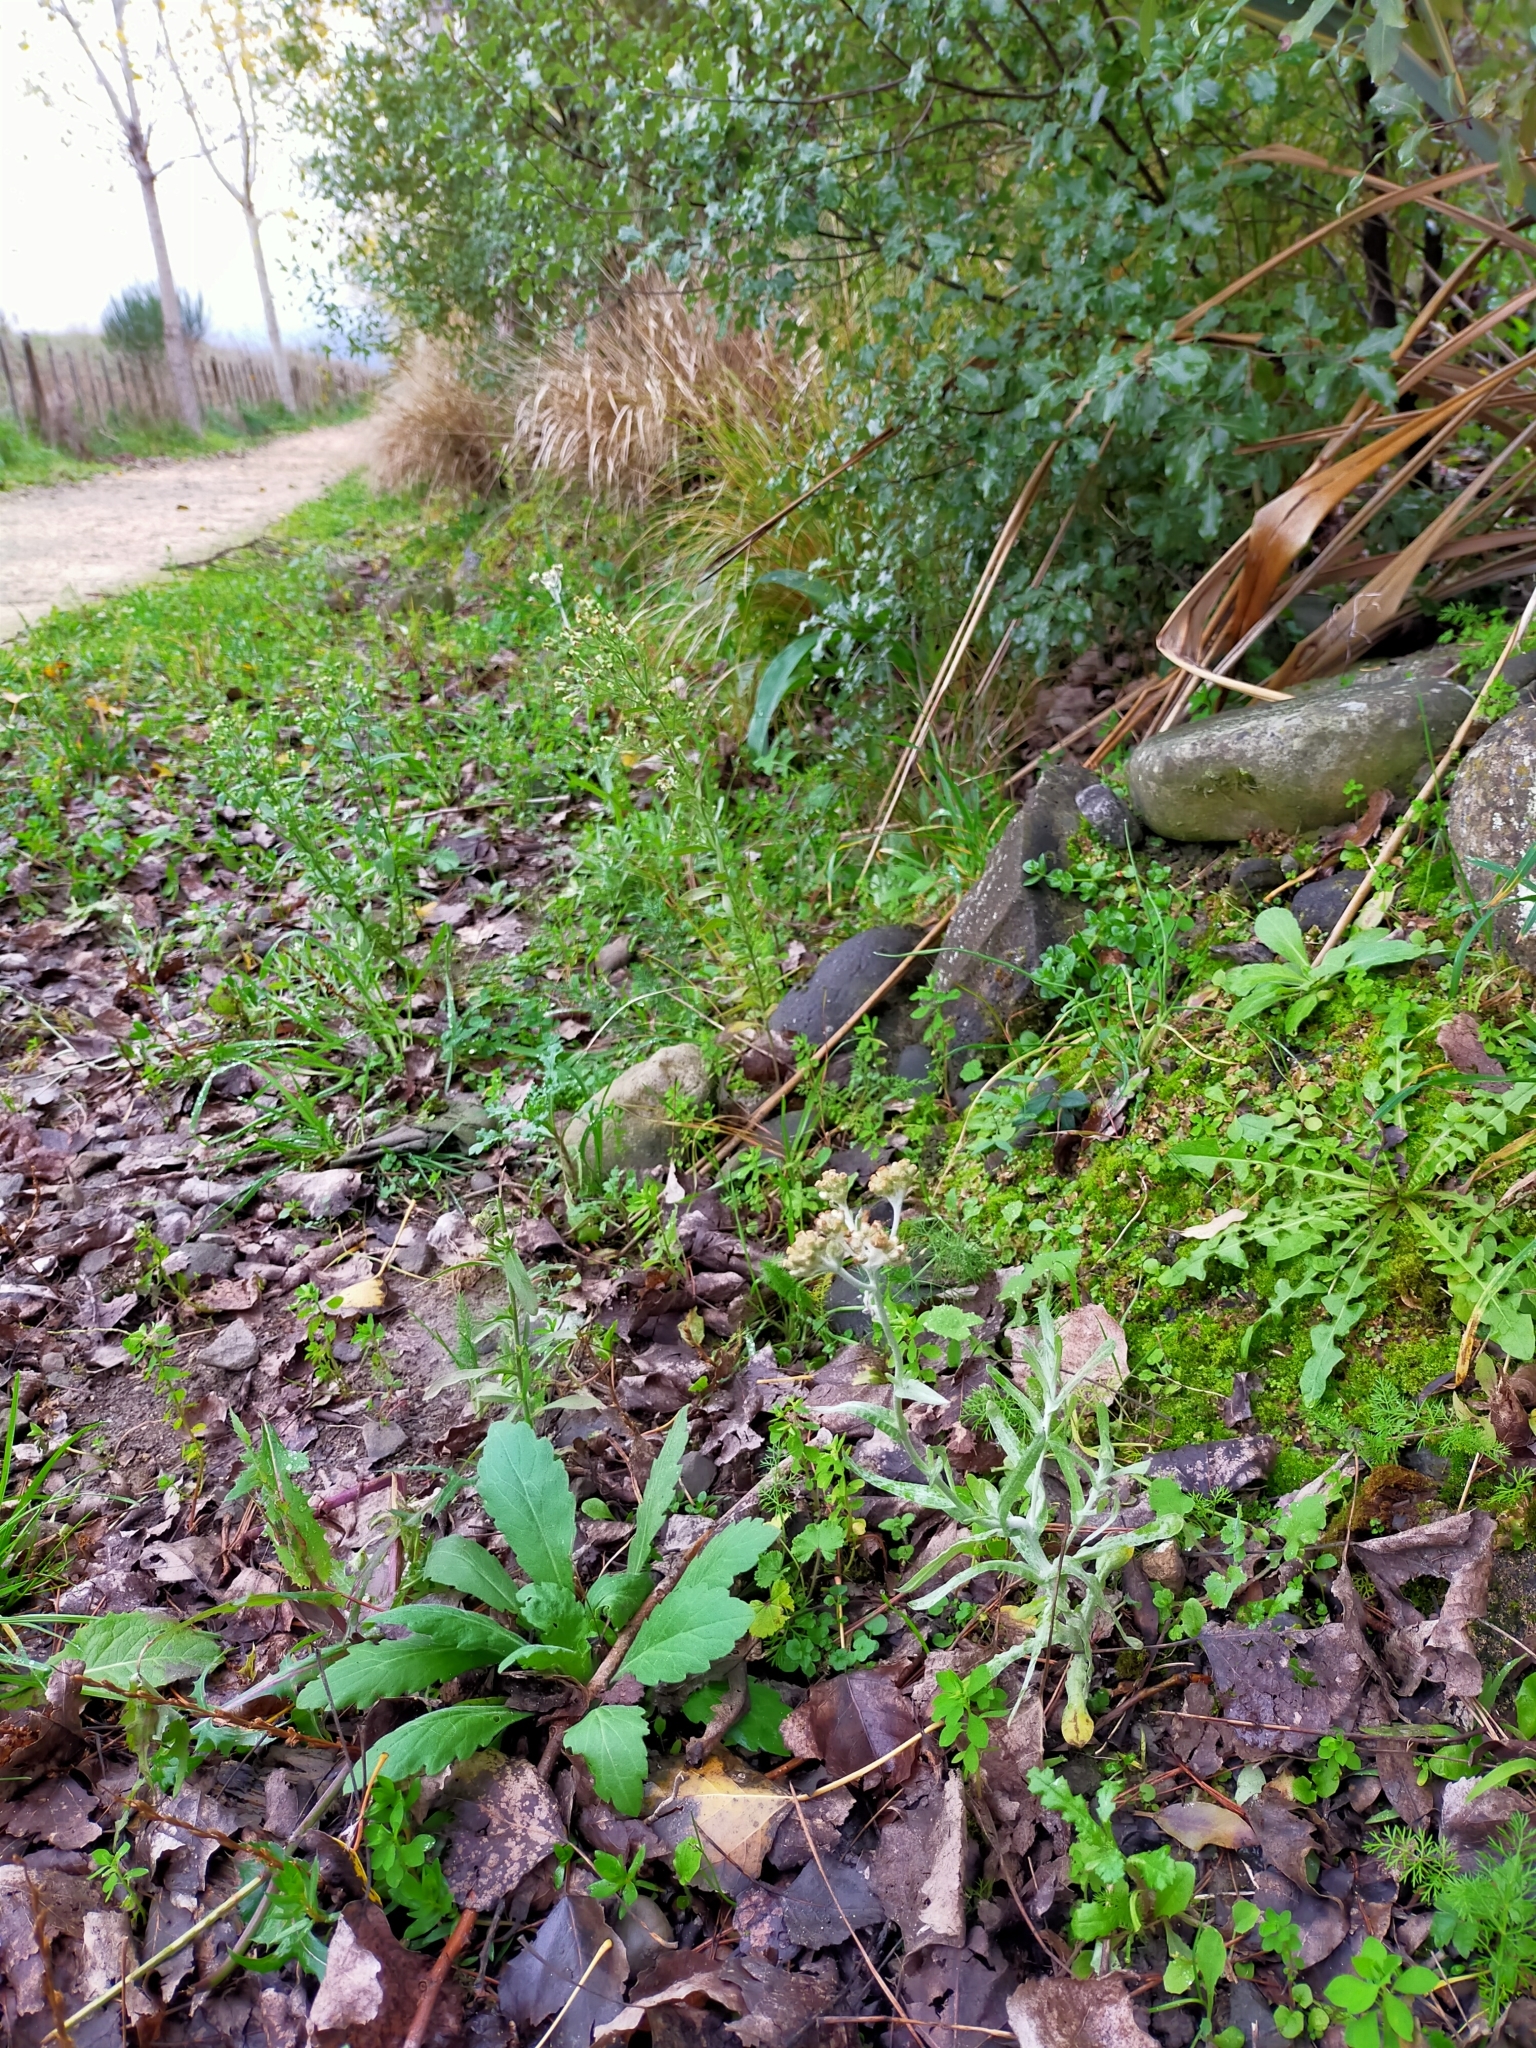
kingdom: Plantae
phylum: Tracheophyta
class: Magnoliopsida
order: Asterales
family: Asteraceae
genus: Helichrysum
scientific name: Helichrysum luteoalbum
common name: Daisy
